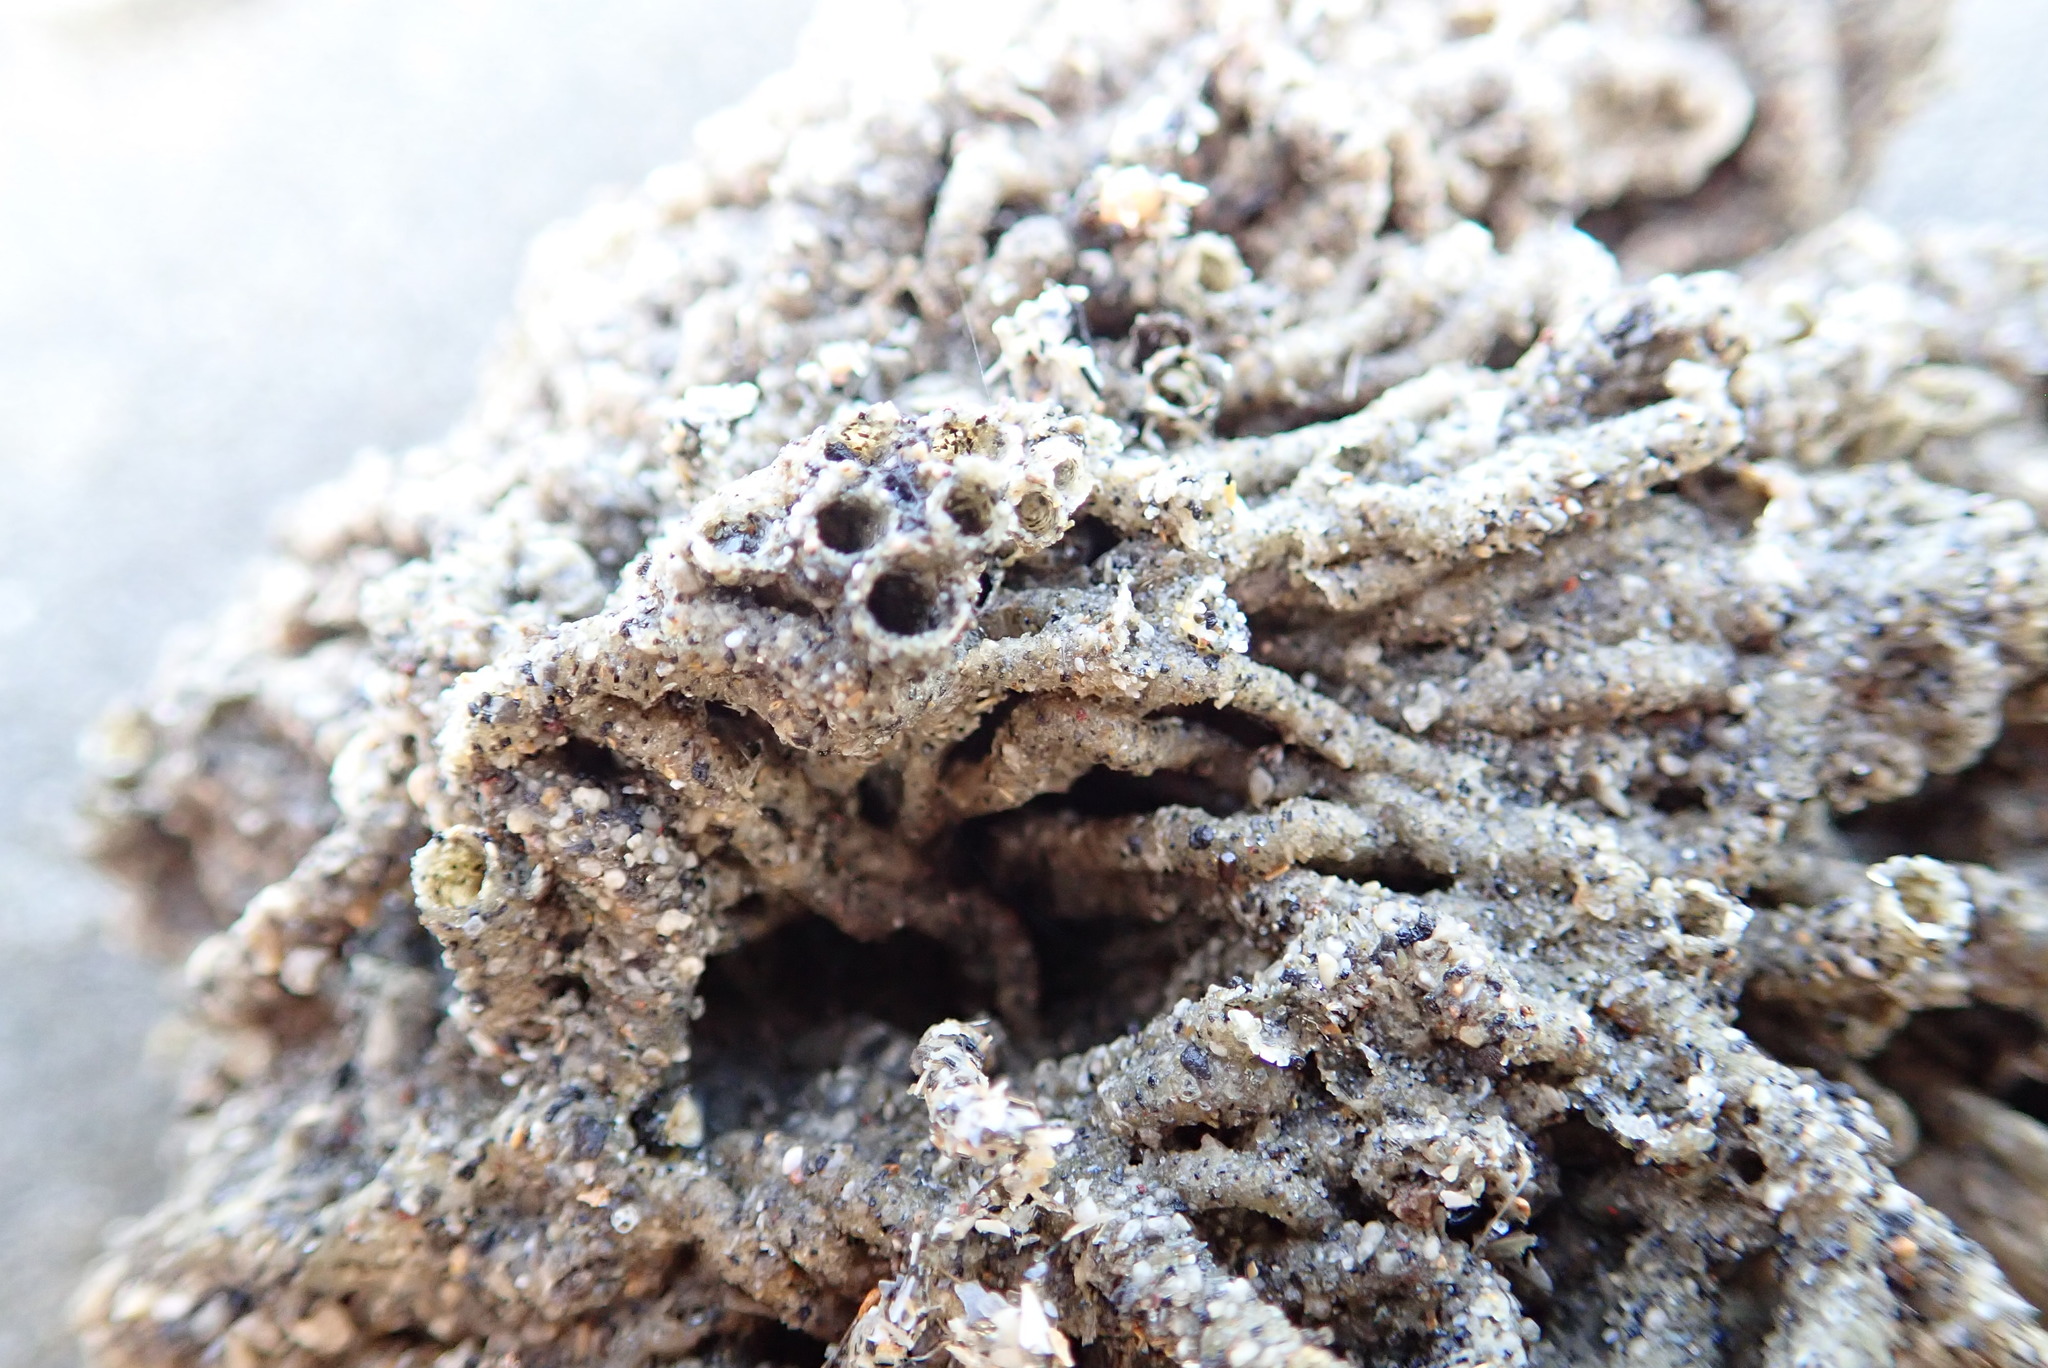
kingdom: Animalia
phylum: Annelida
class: Polychaeta
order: Sabellida
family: Sabellariidae
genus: Neosabellaria
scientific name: Neosabellaria kaiparaensis
